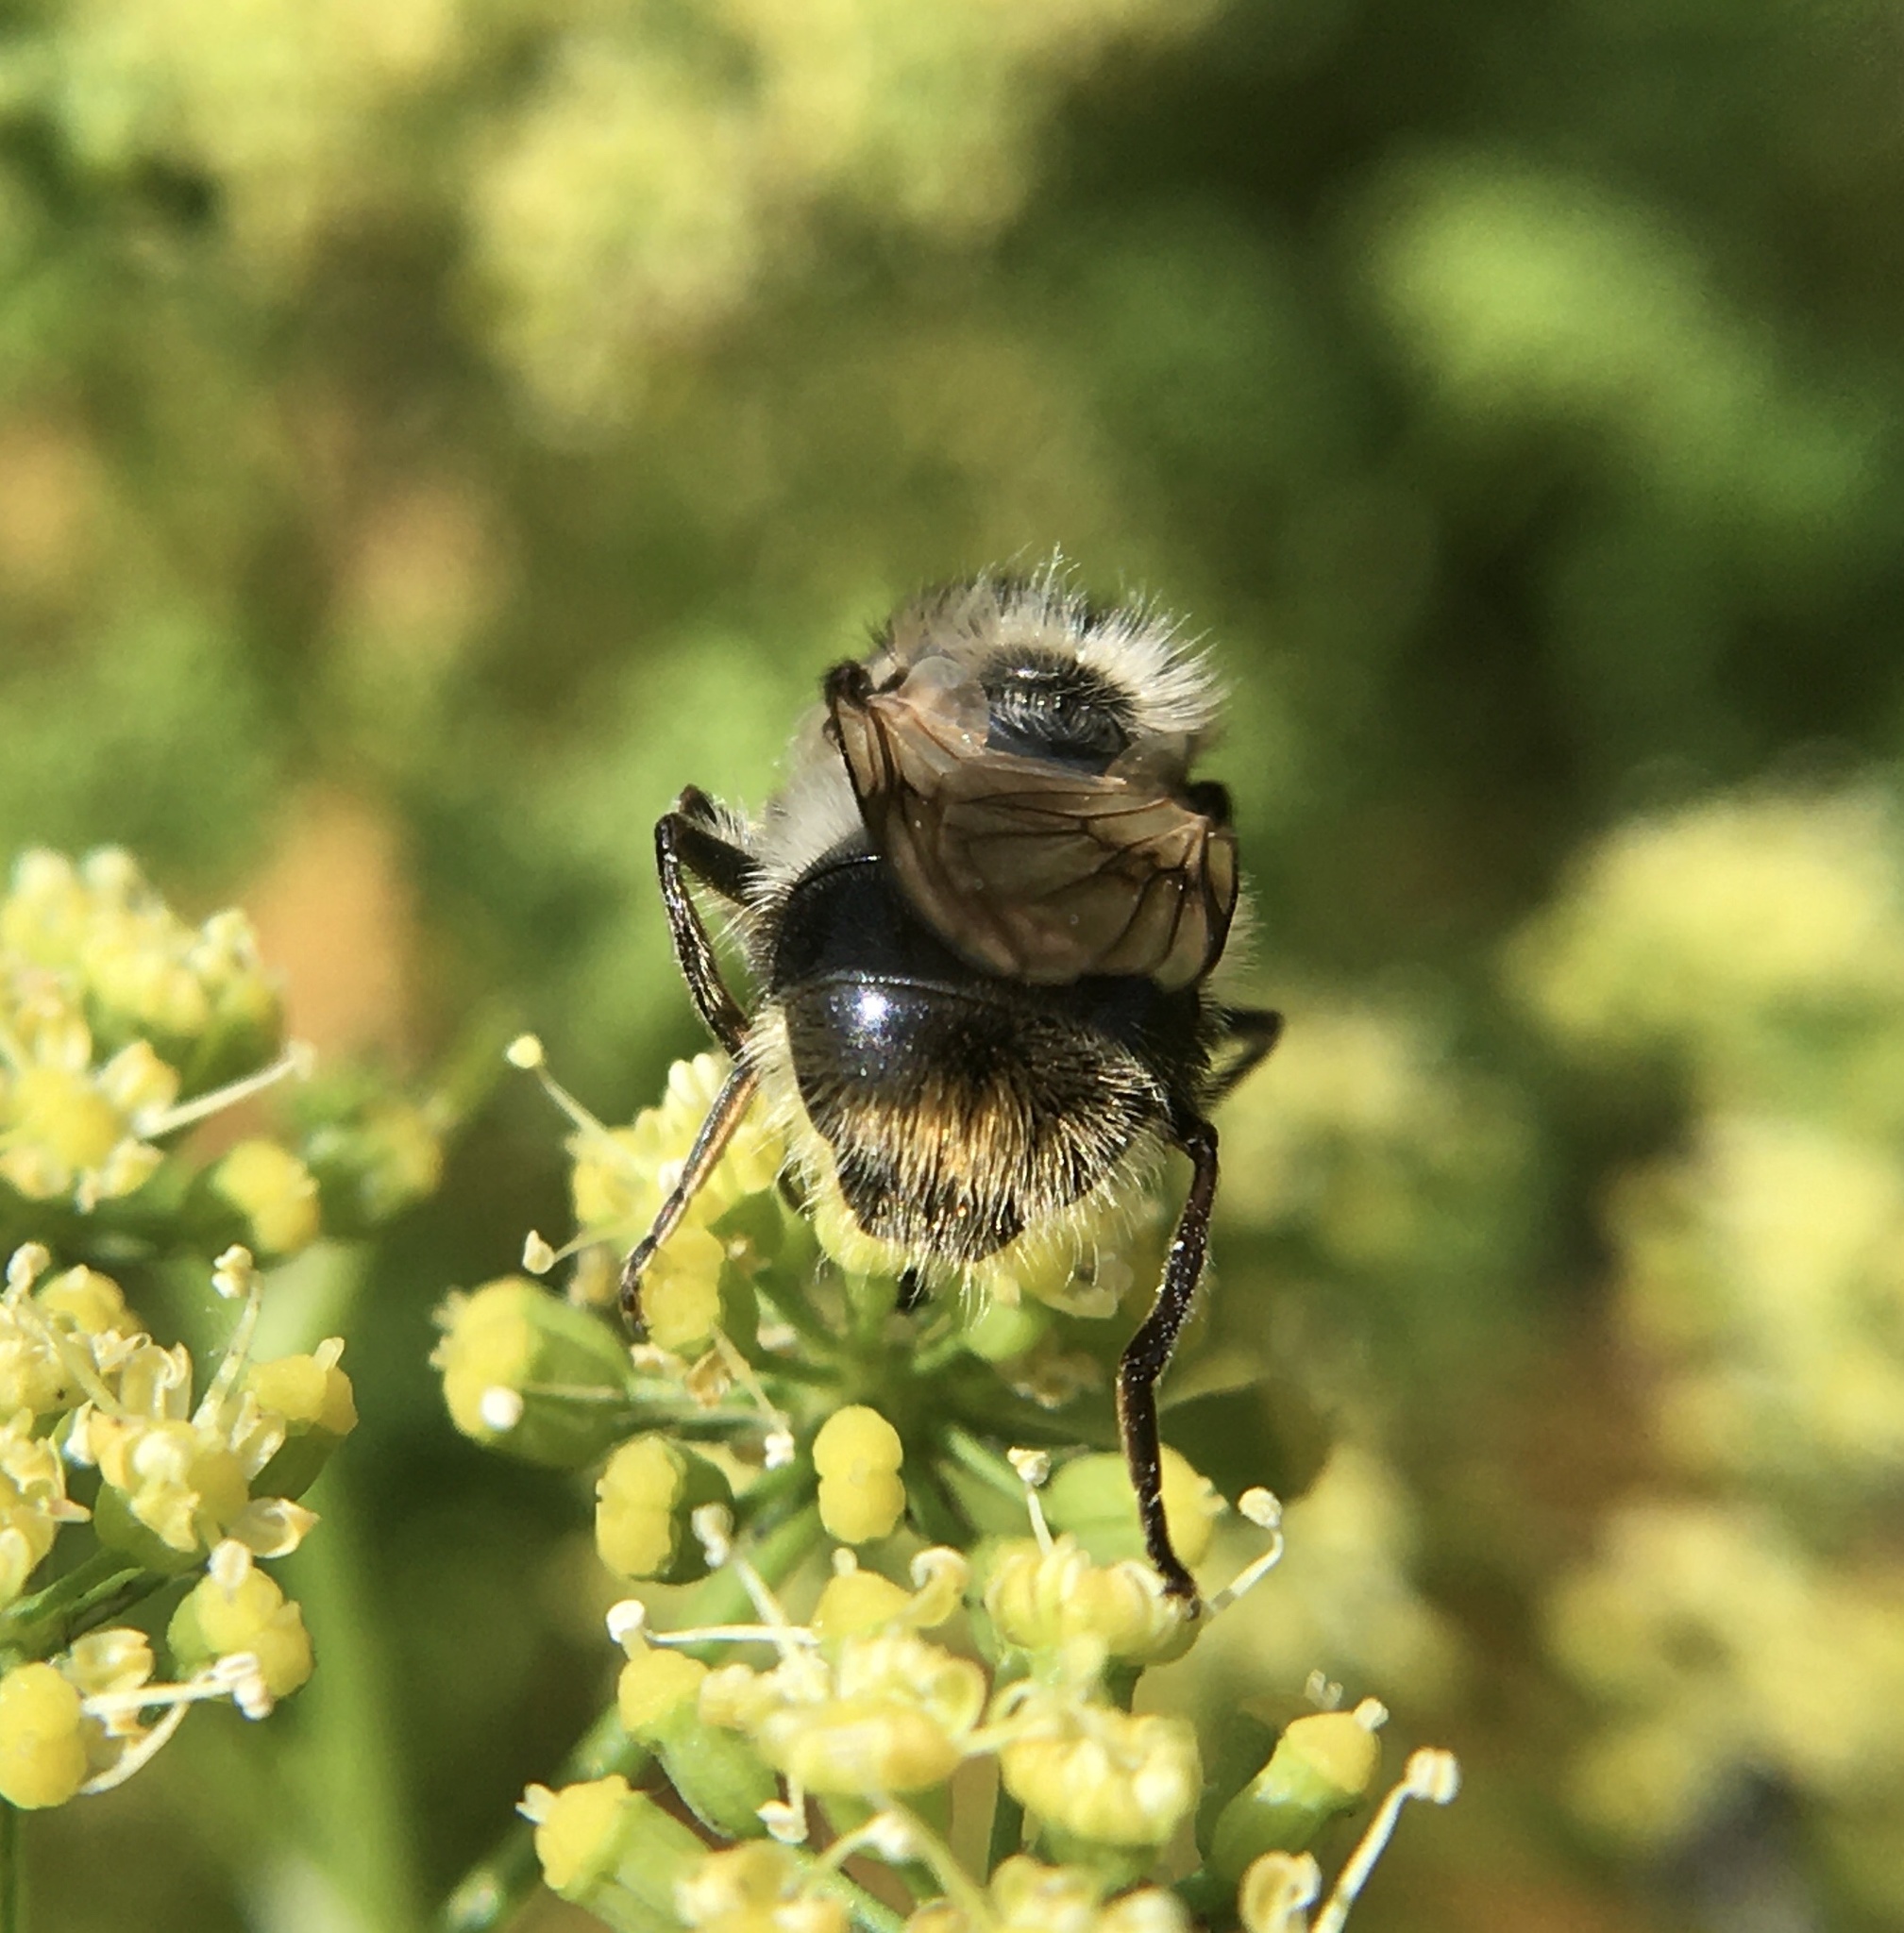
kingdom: Animalia
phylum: Arthropoda
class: Insecta
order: Diptera
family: Syrphidae
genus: Cheilosia
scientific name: Cheilosia illustrata
